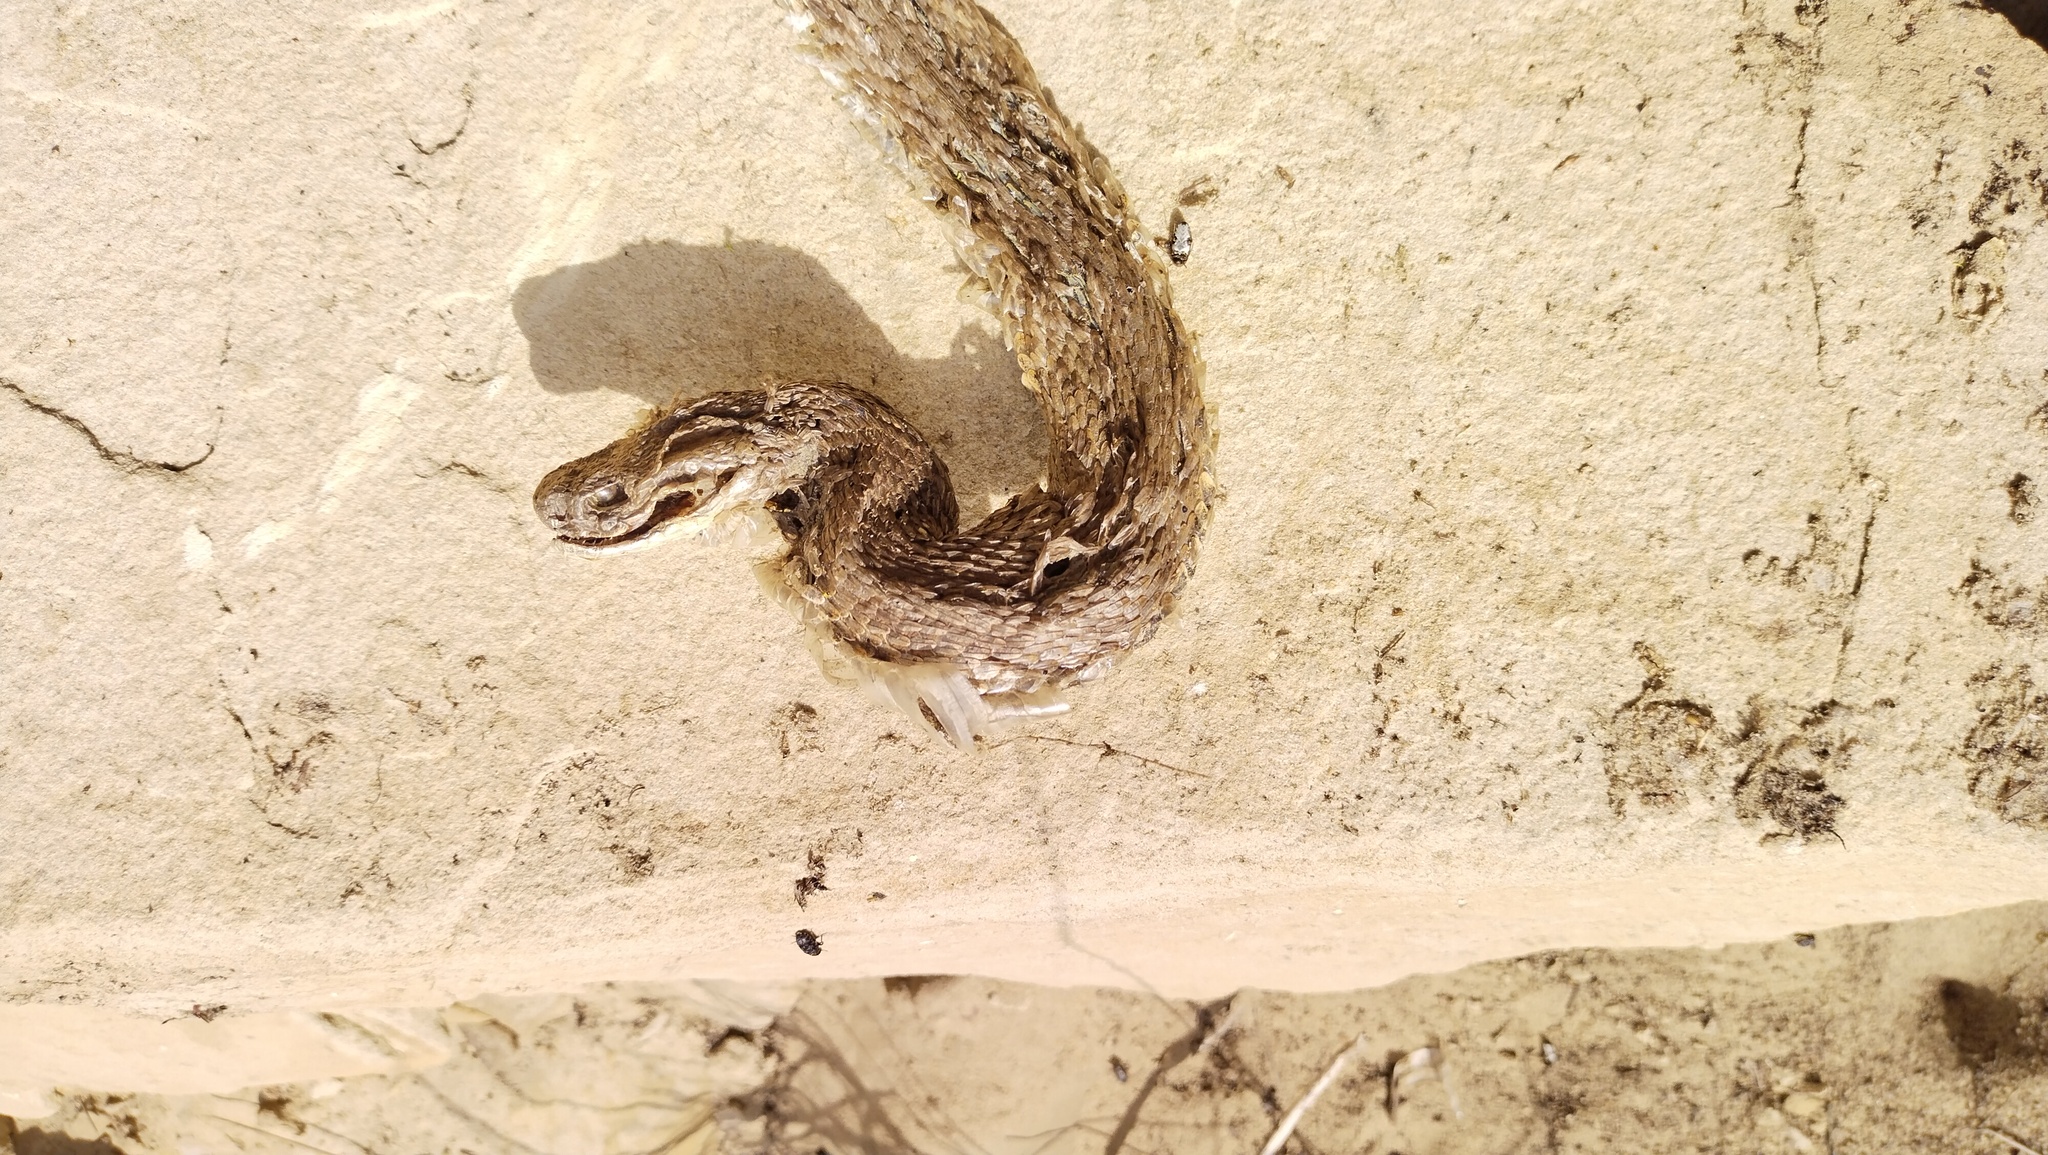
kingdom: Animalia
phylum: Chordata
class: Squamata
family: Viperidae
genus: Macrovipera
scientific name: Macrovipera lebetinus
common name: Levantine viper
